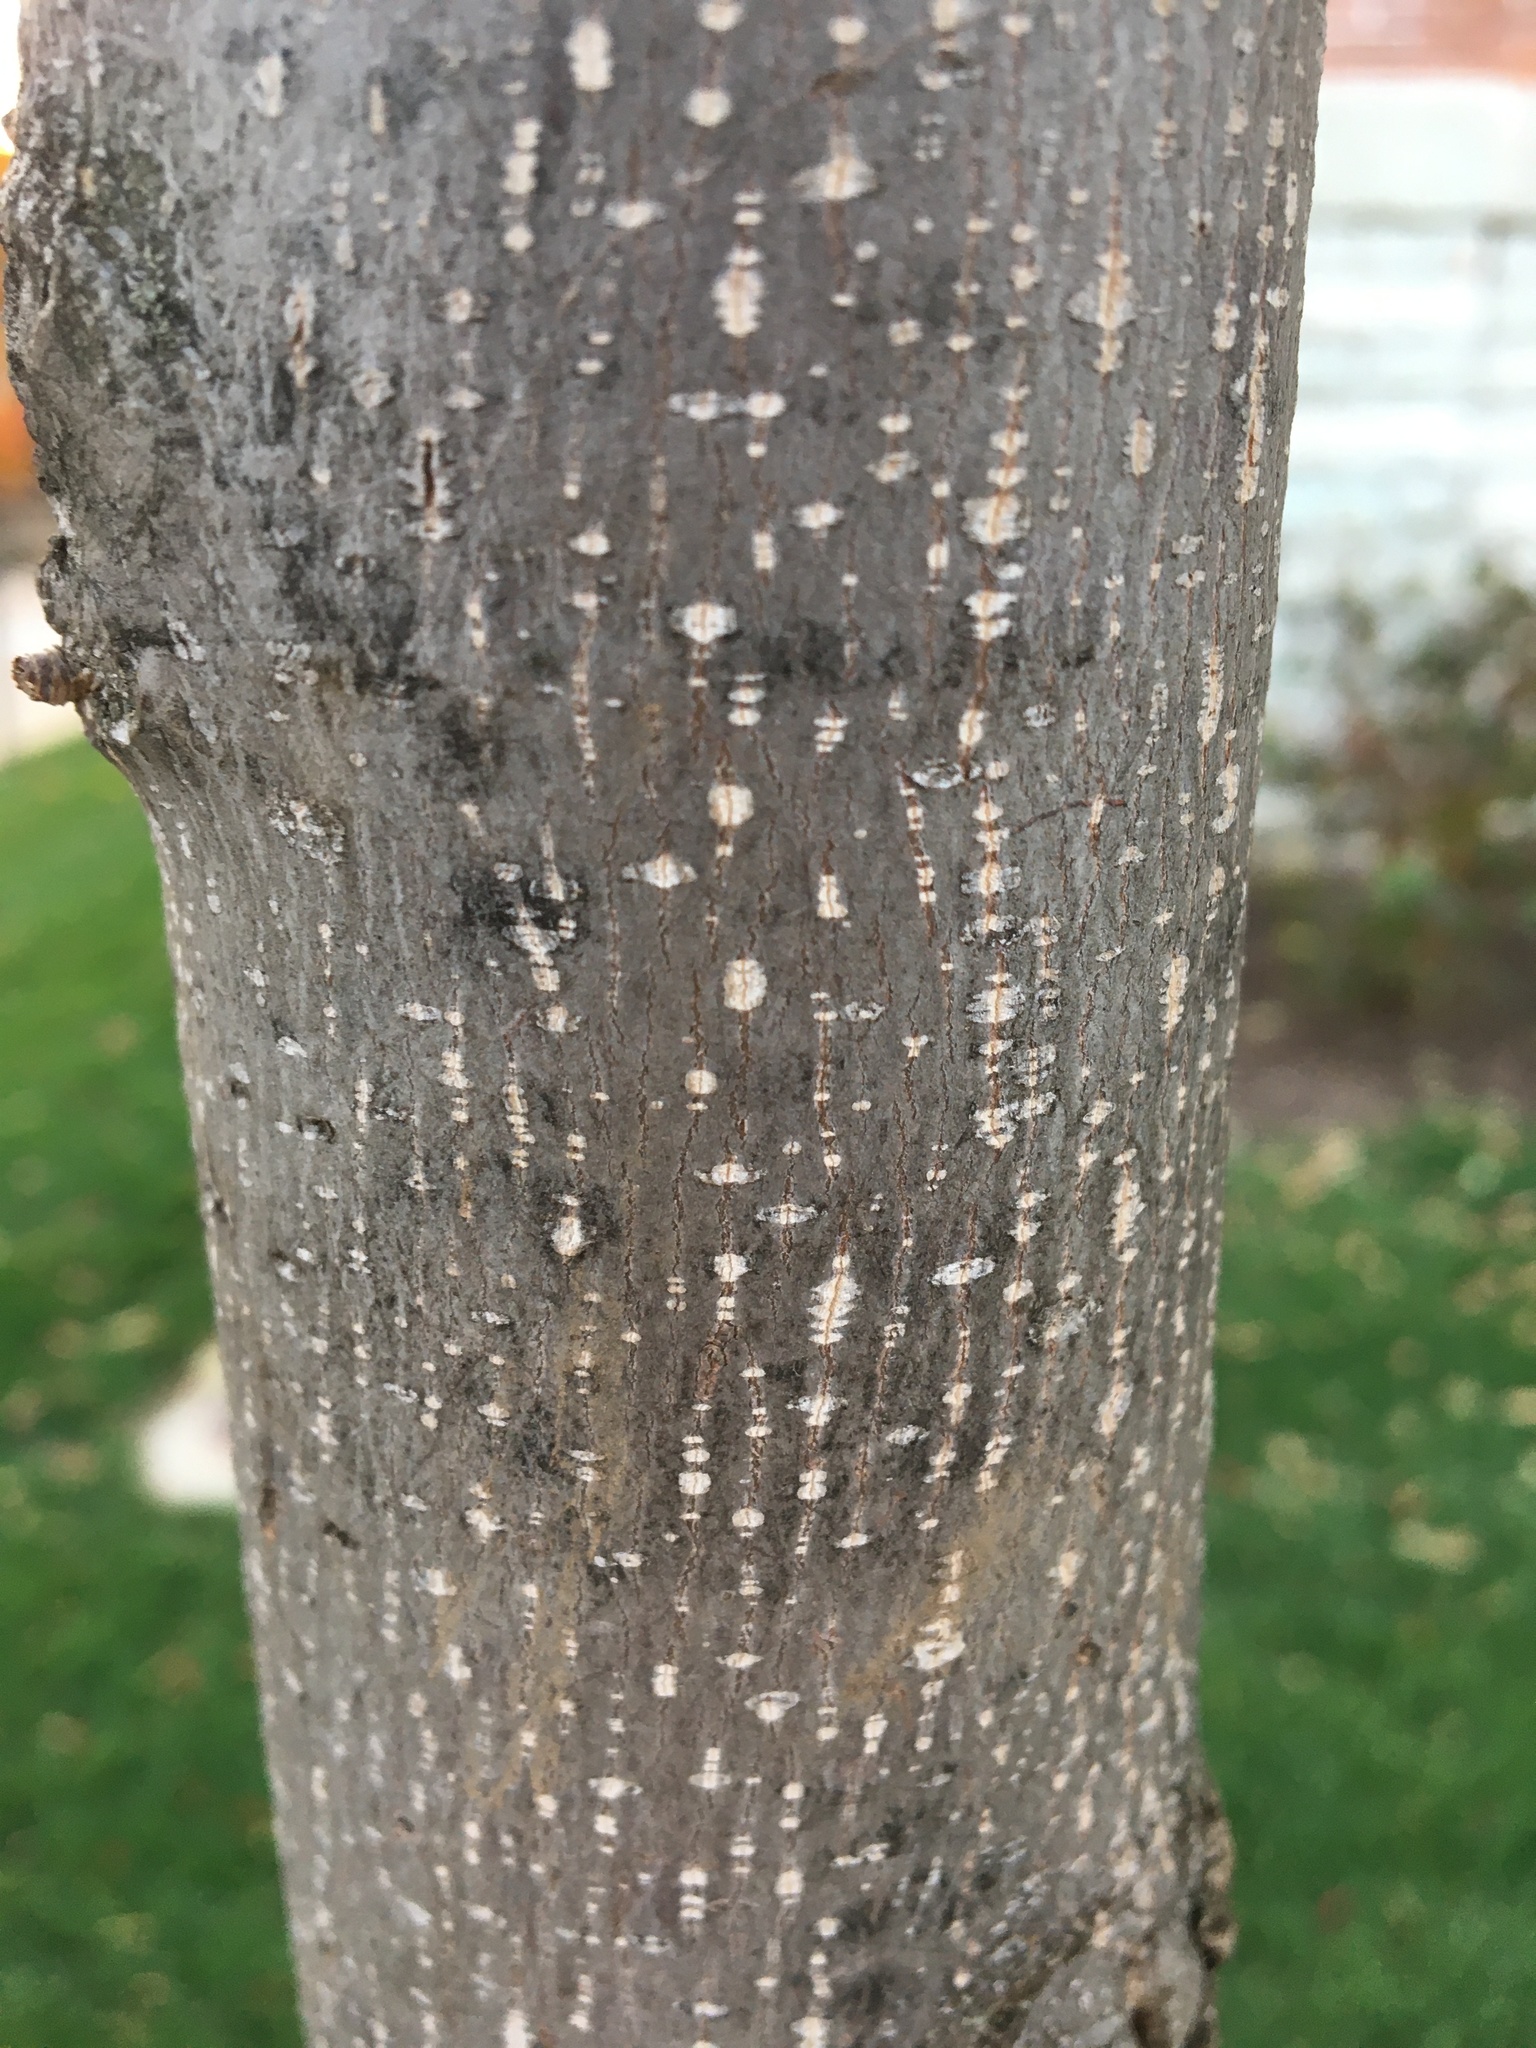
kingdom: Plantae
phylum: Tracheophyta
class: Magnoliopsida
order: Magnoliales
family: Magnoliaceae
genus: Liriodendron
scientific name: Liriodendron tulipifera
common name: Tulip tree
